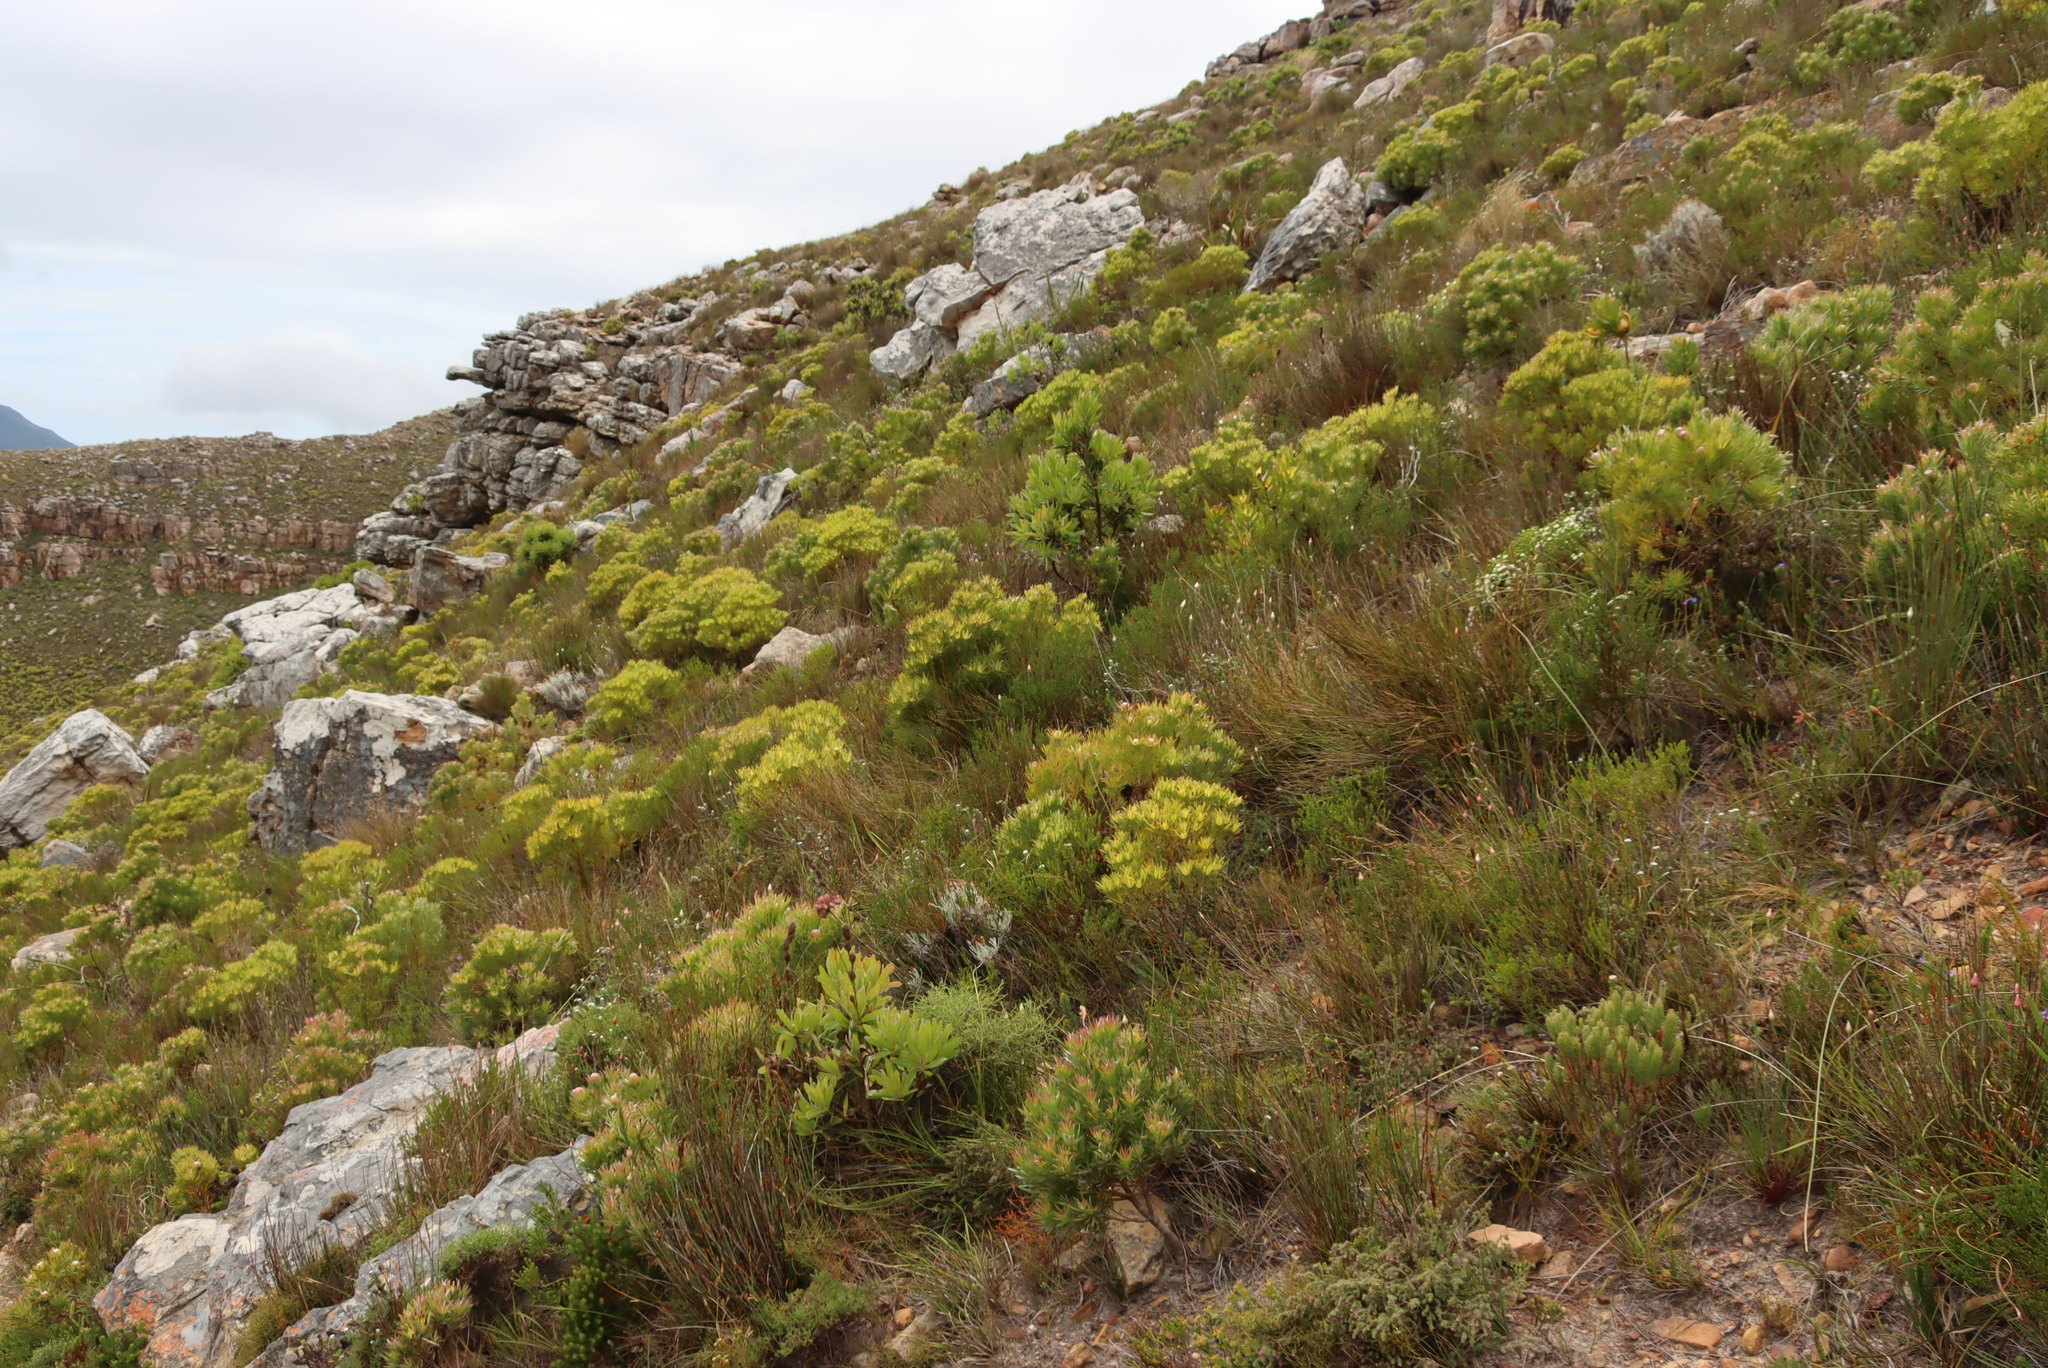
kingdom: Plantae
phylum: Tracheophyta
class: Magnoliopsida
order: Proteales
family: Proteaceae
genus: Leucadendron
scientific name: Leucadendron xanthoconus
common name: Sickle-leaf conebush
